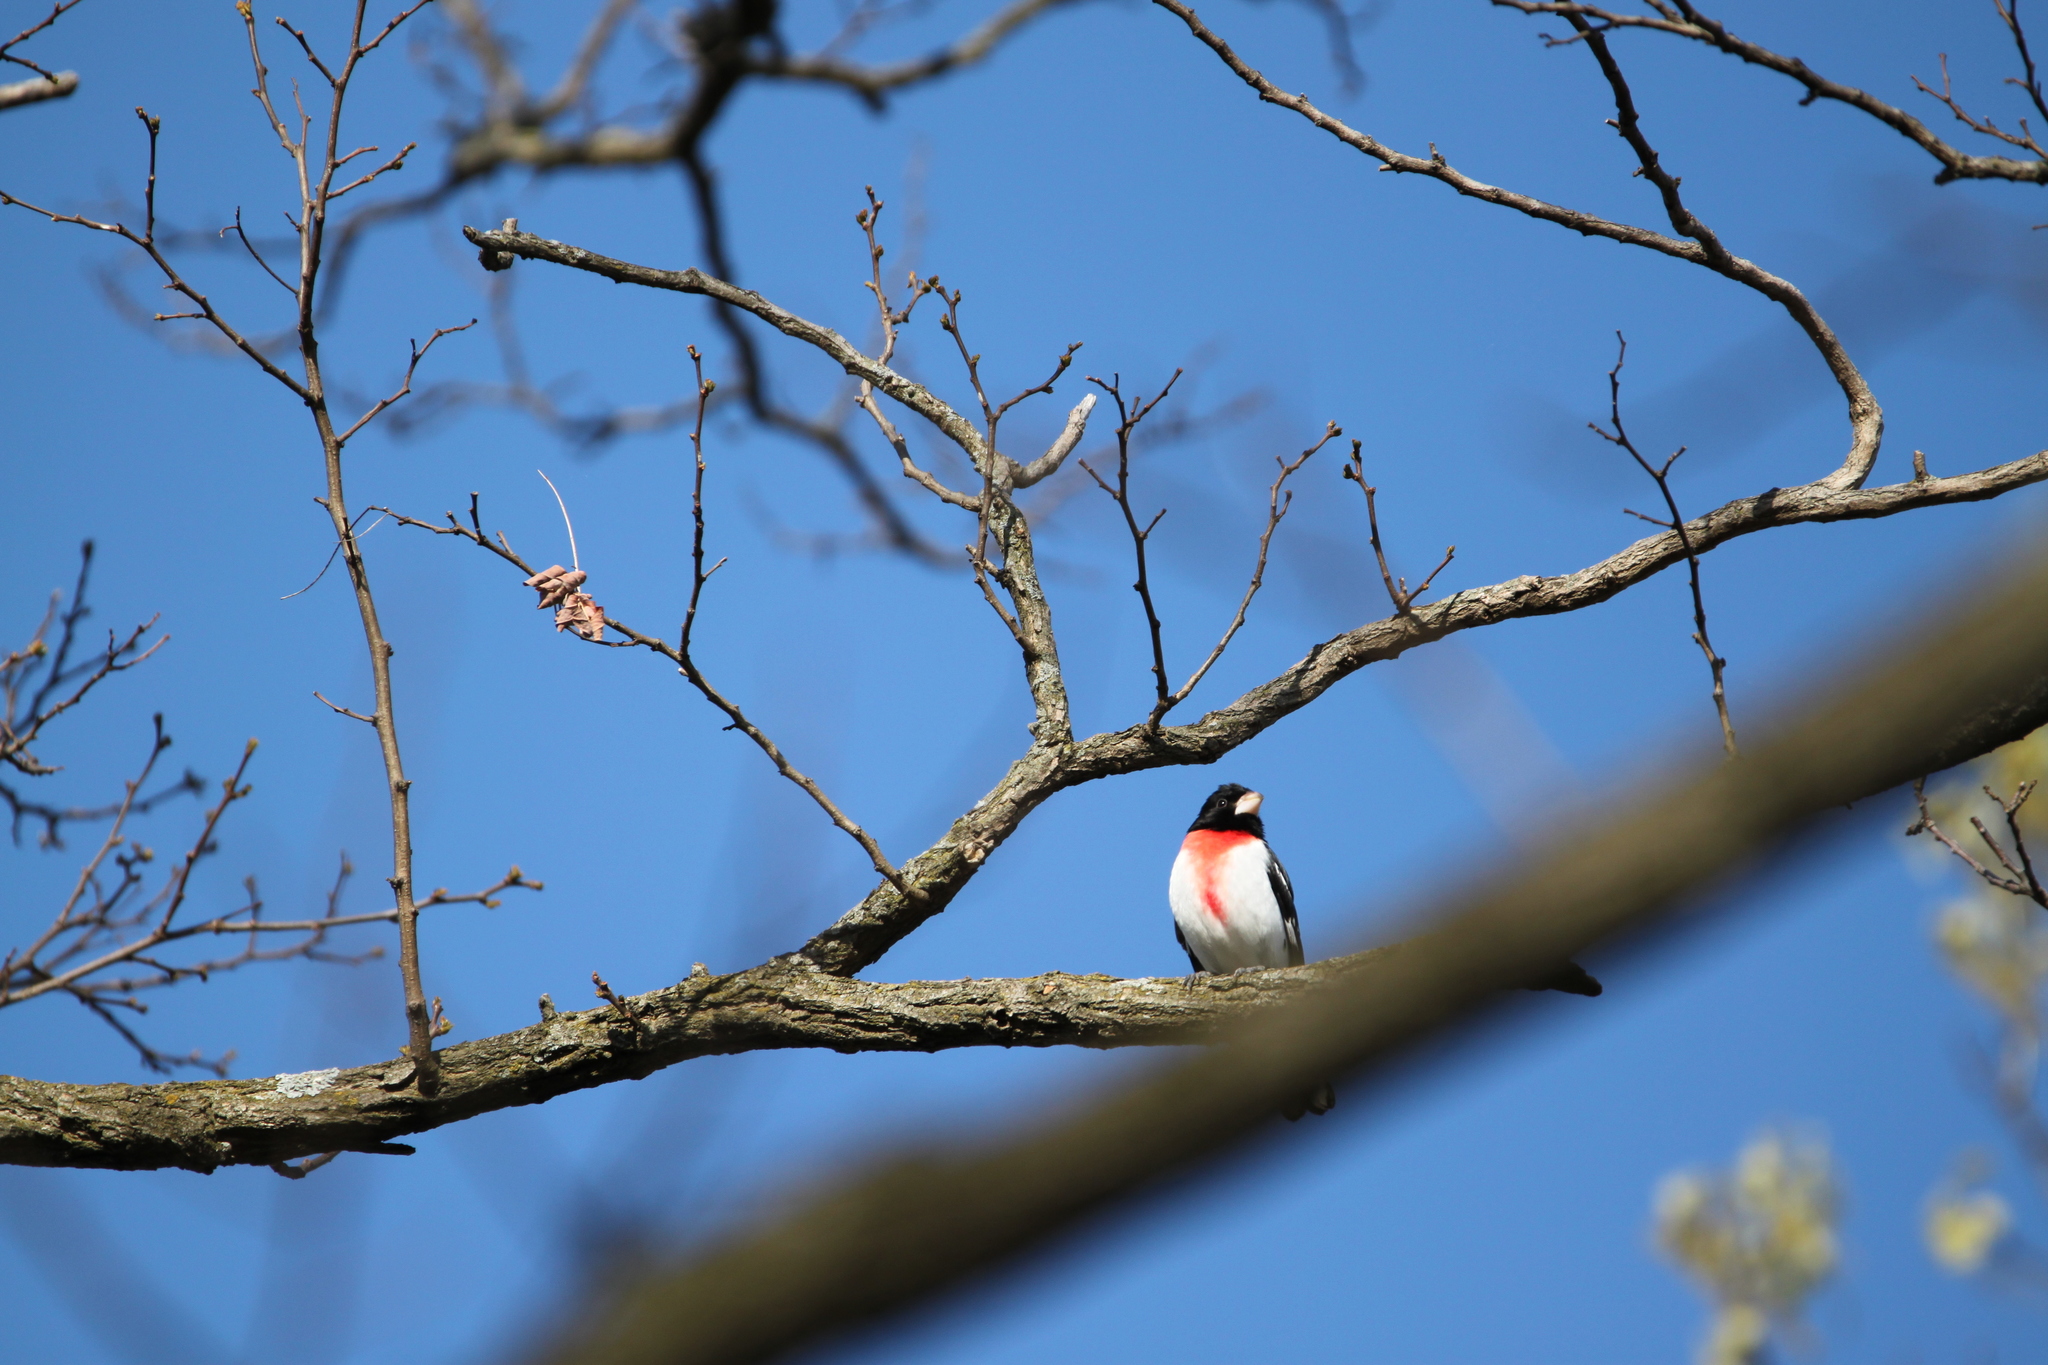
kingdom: Animalia
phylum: Chordata
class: Aves
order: Passeriformes
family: Cardinalidae
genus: Pheucticus
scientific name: Pheucticus ludovicianus
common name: Rose-breasted grosbeak
